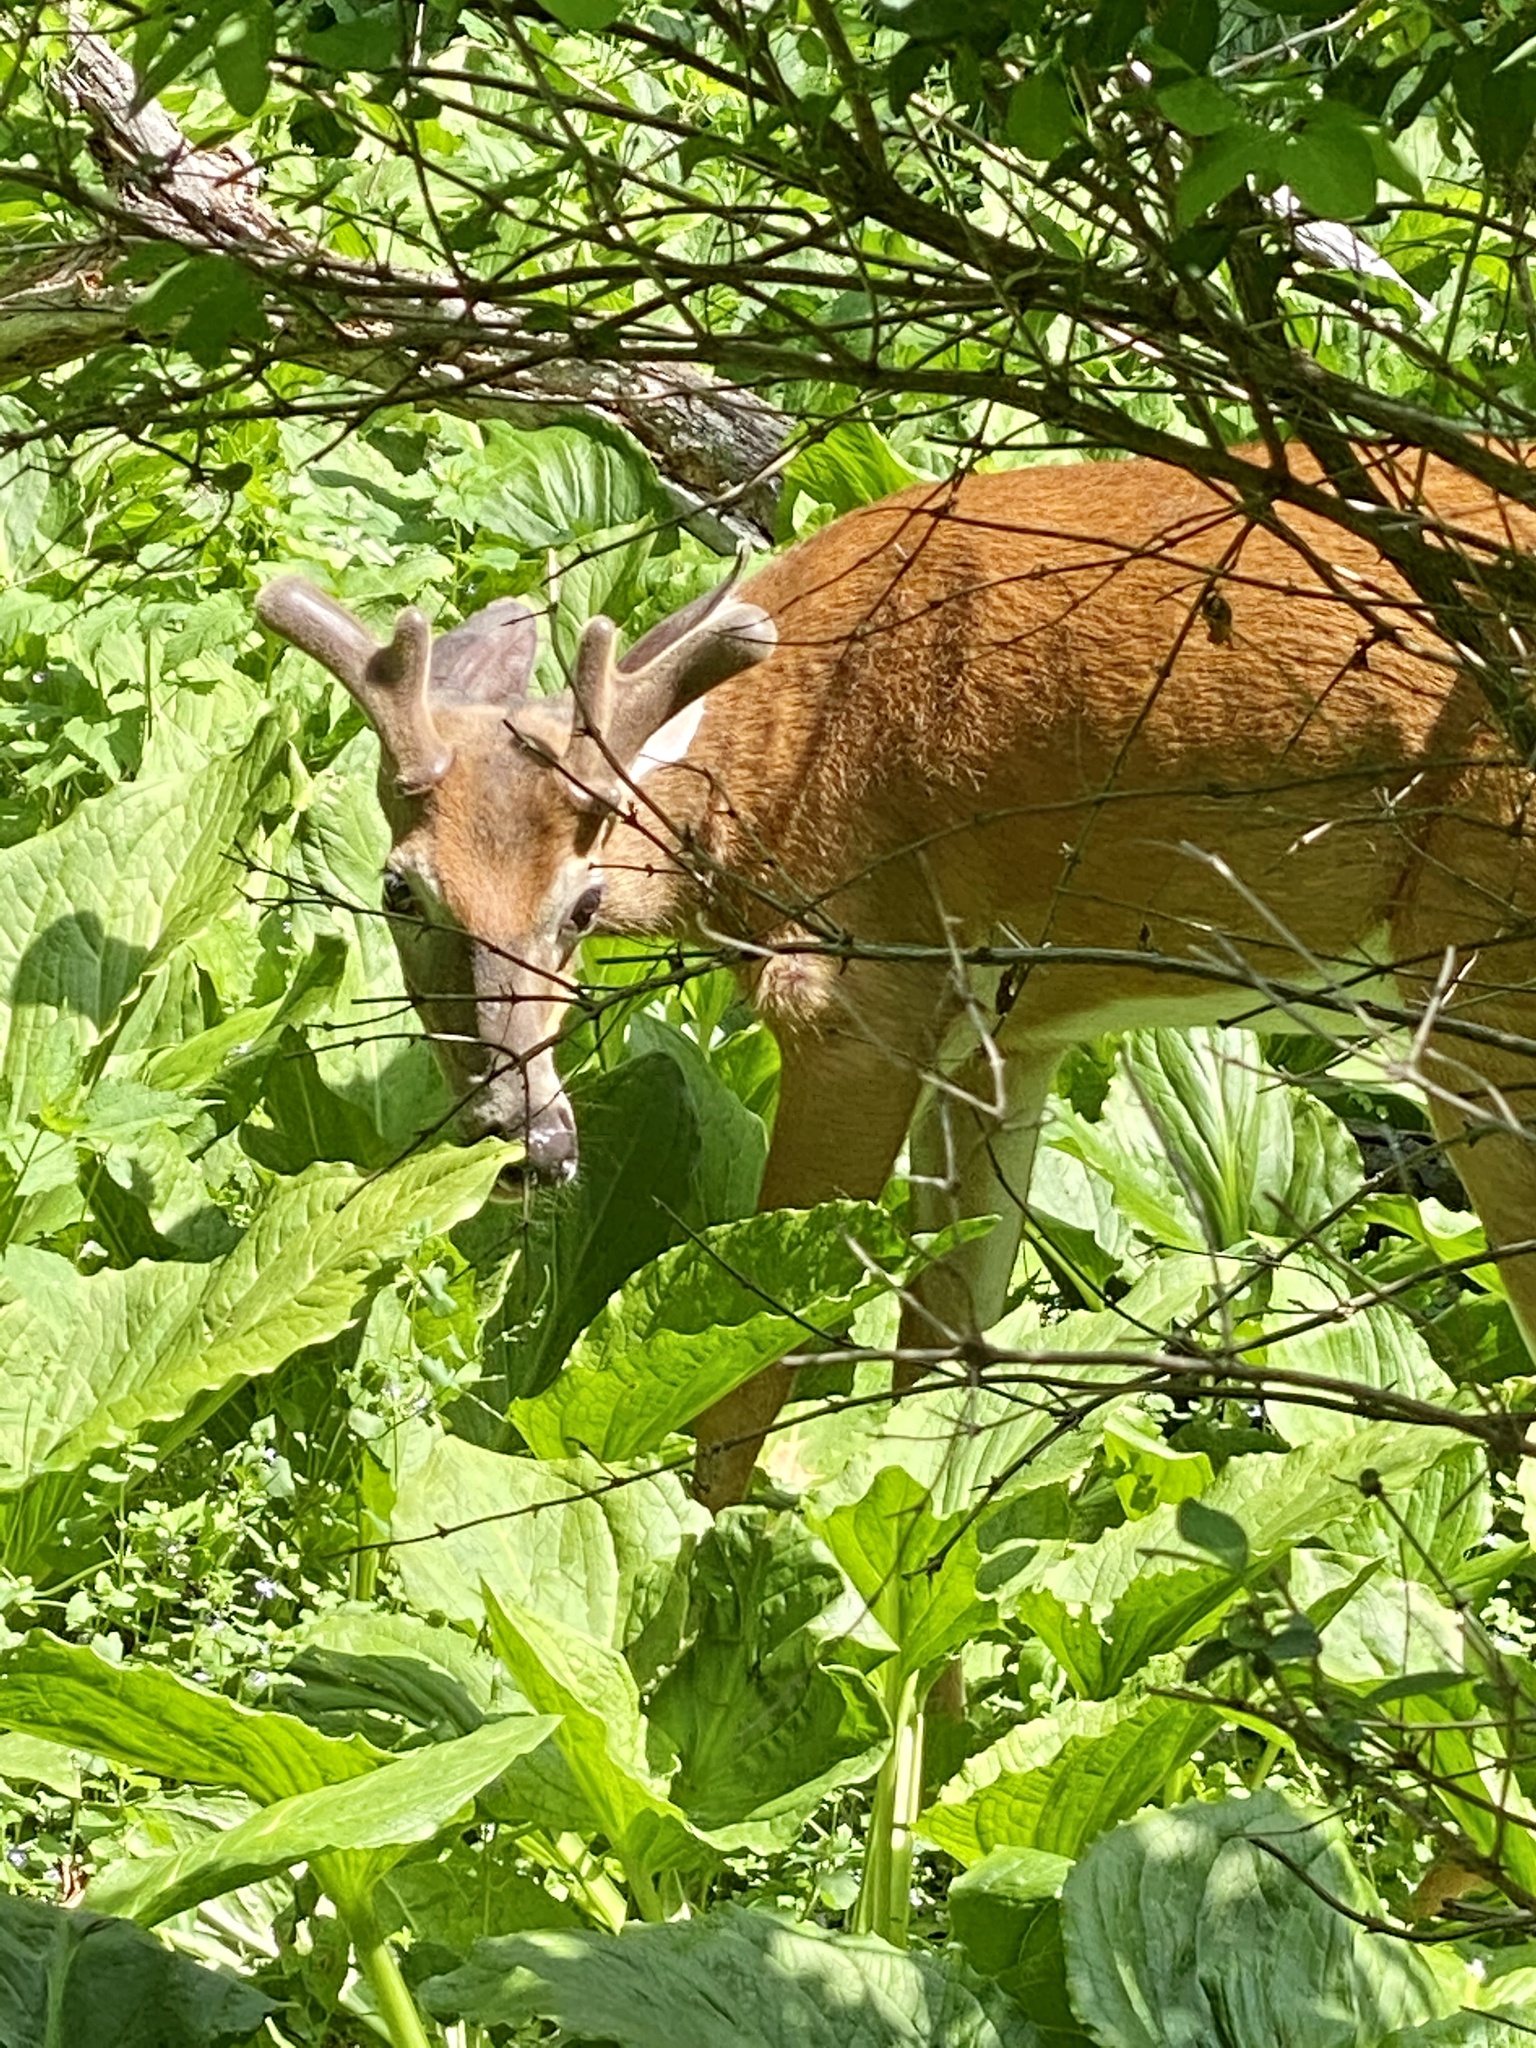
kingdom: Animalia
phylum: Chordata
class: Mammalia
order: Artiodactyla
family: Cervidae
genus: Odocoileus
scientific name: Odocoileus virginianus
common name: White-tailed deer
